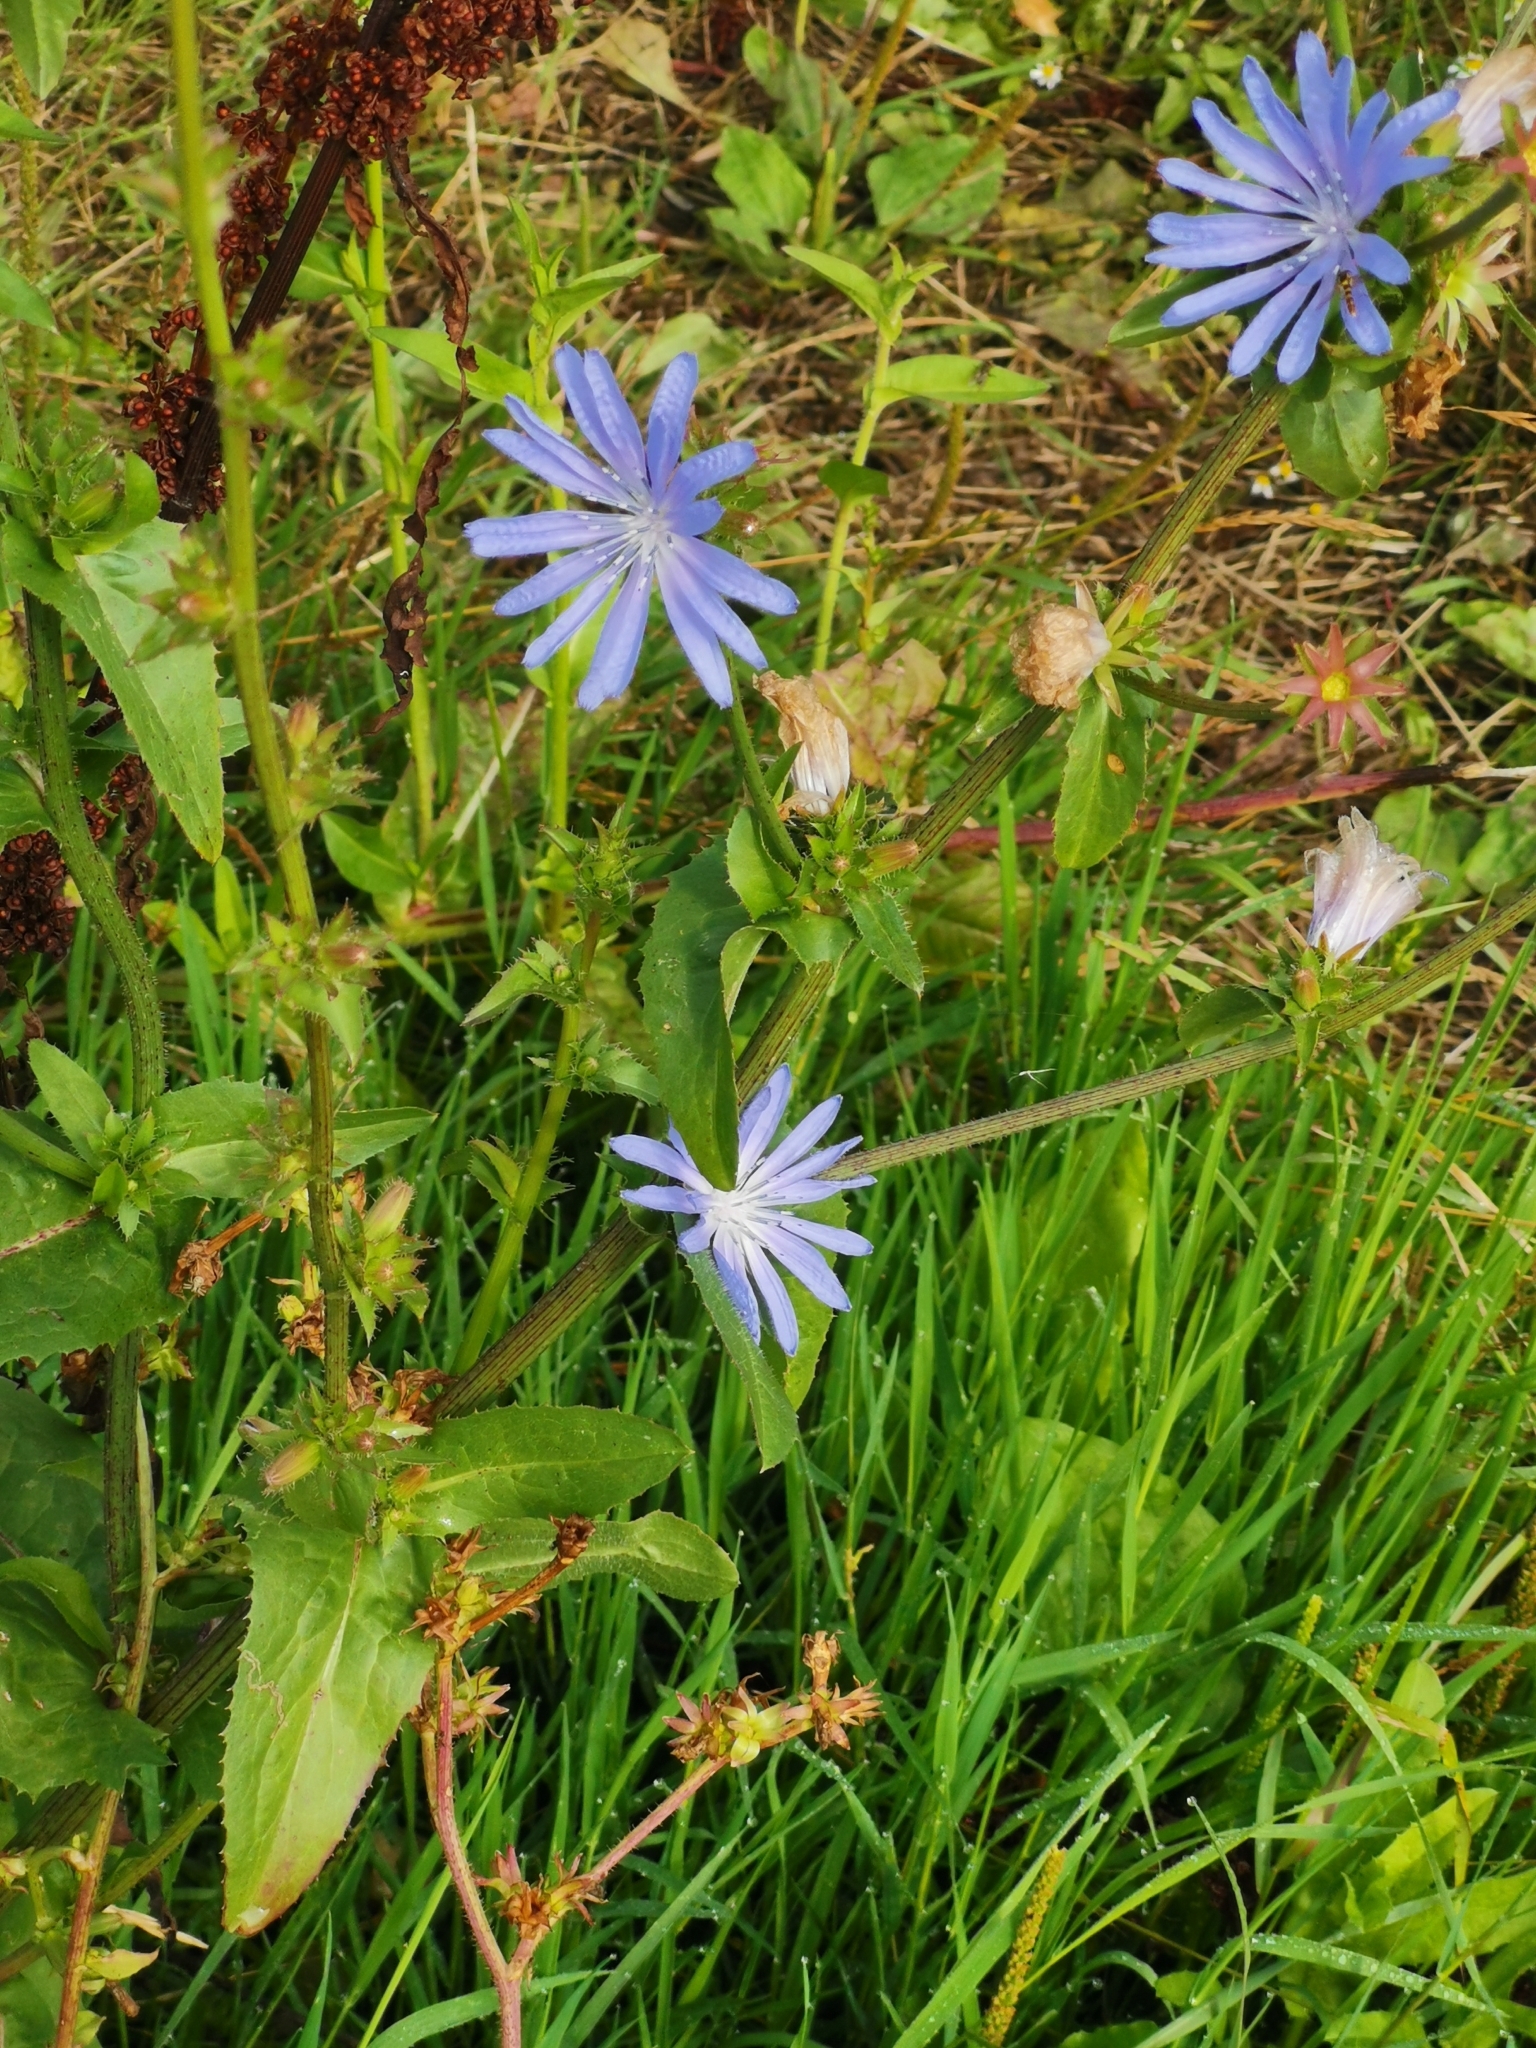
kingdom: Plantae
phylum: Tracheophyta
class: Magnoliopsida
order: Asterales
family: Asteraceae
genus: Cichorium
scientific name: Cichorium intybus
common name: Chicory
